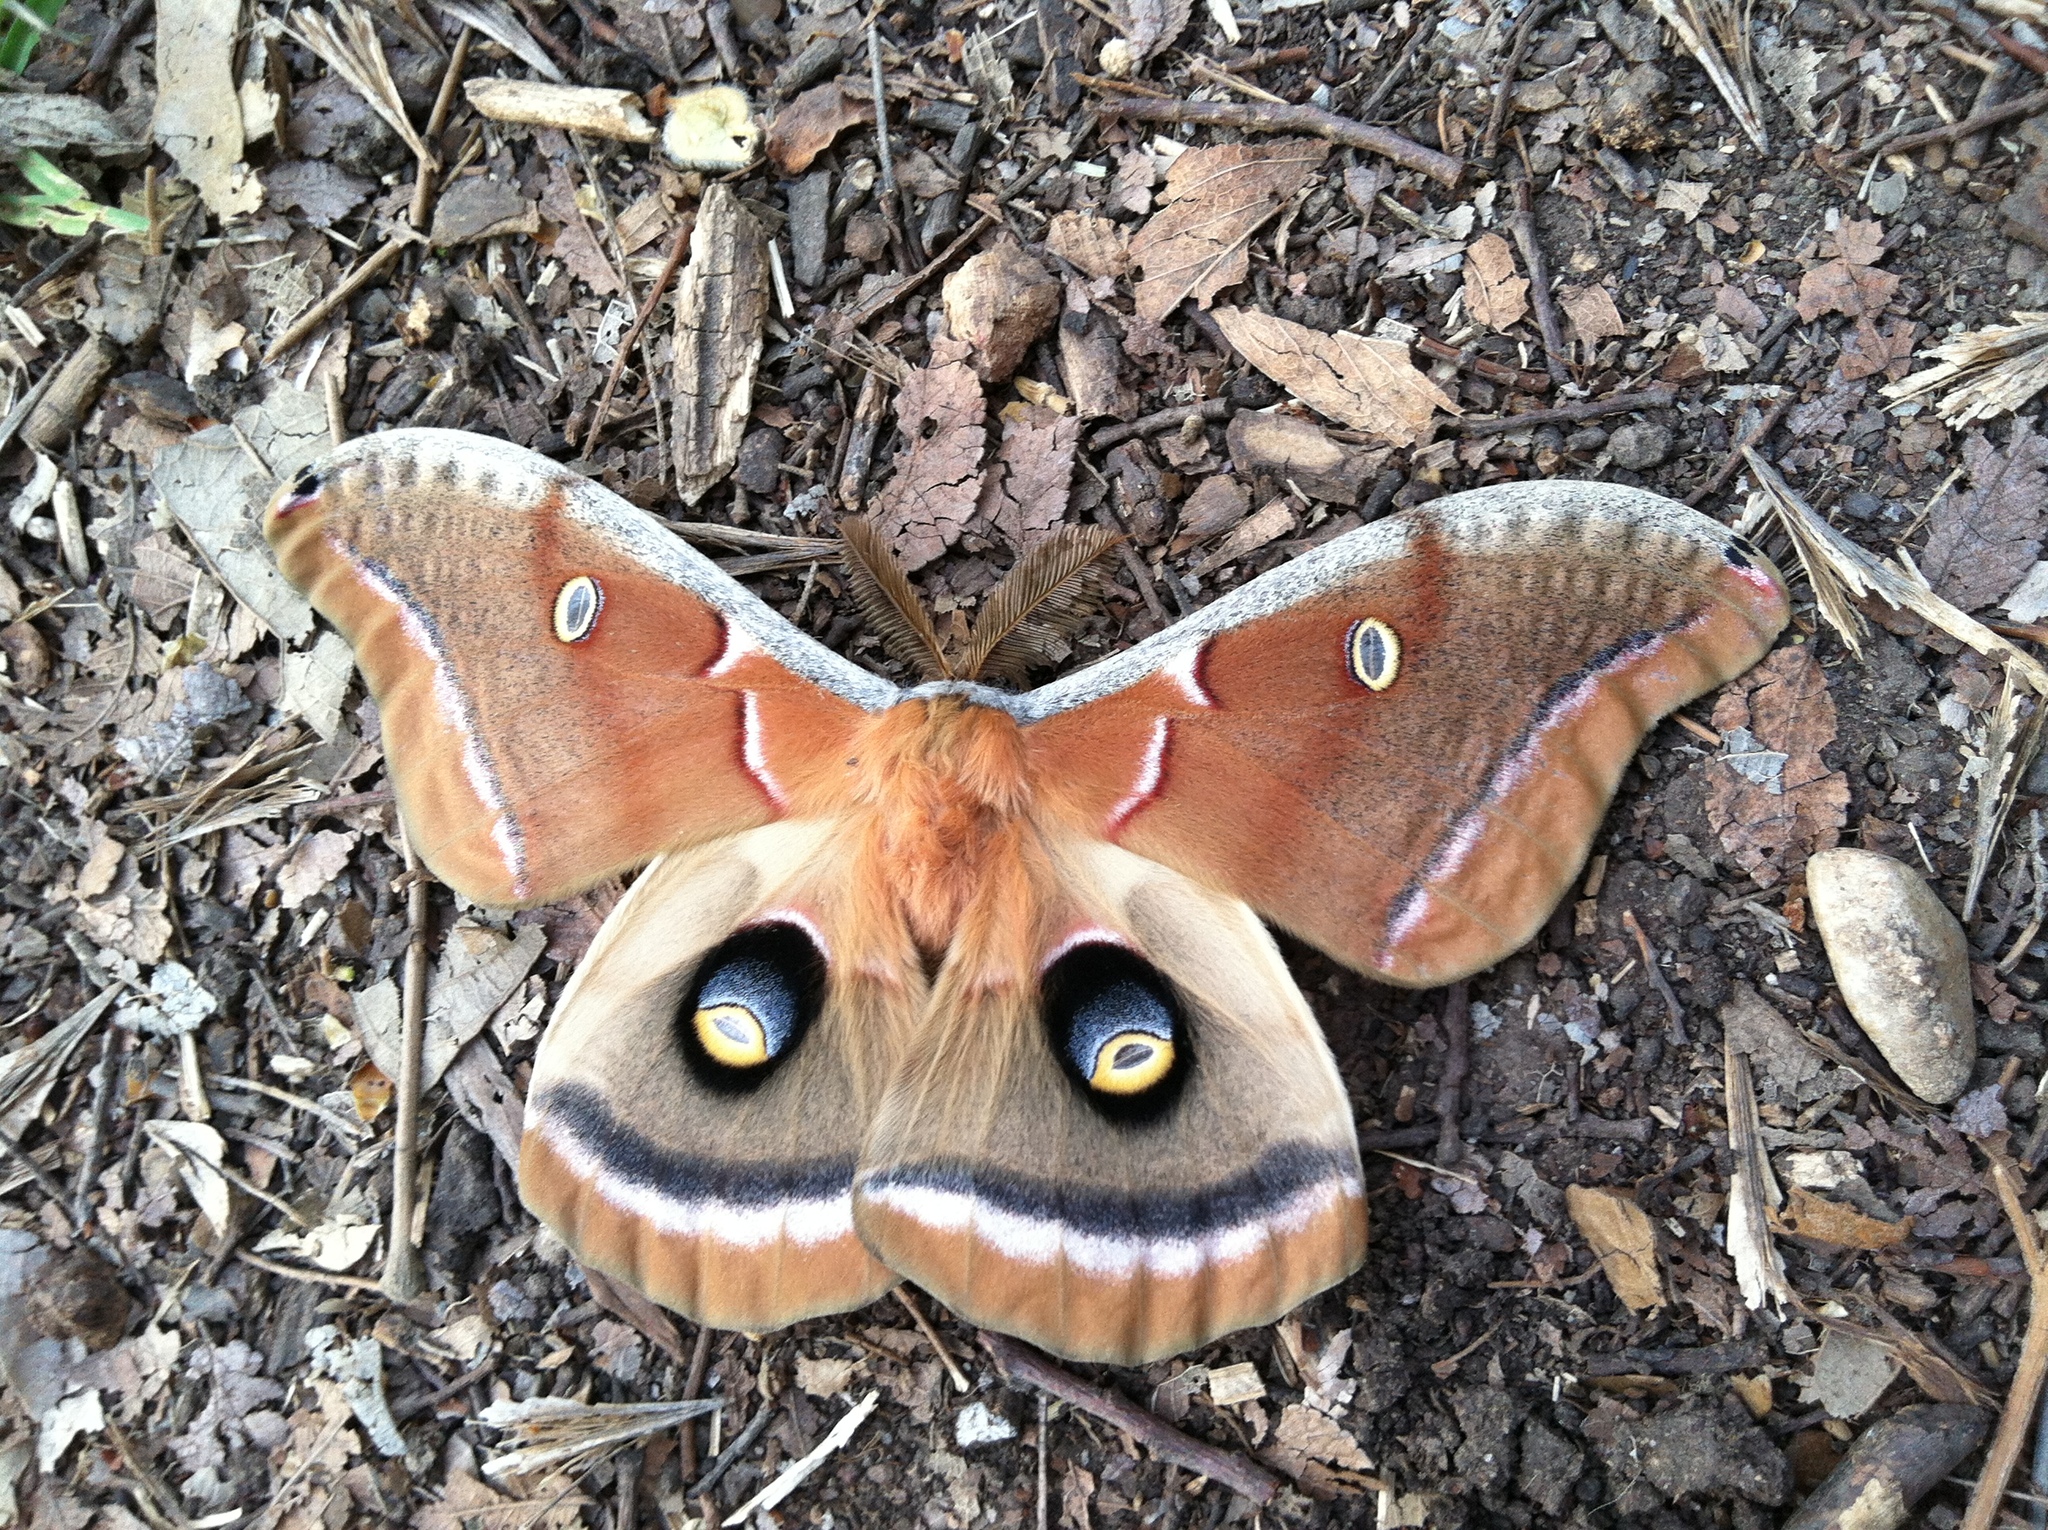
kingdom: Animalia
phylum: Arthropoda
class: Insecta
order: Lepidoptera
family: Saturniidae
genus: Antheraea
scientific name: Antheraea polyphemus
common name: Polyphemus moth
